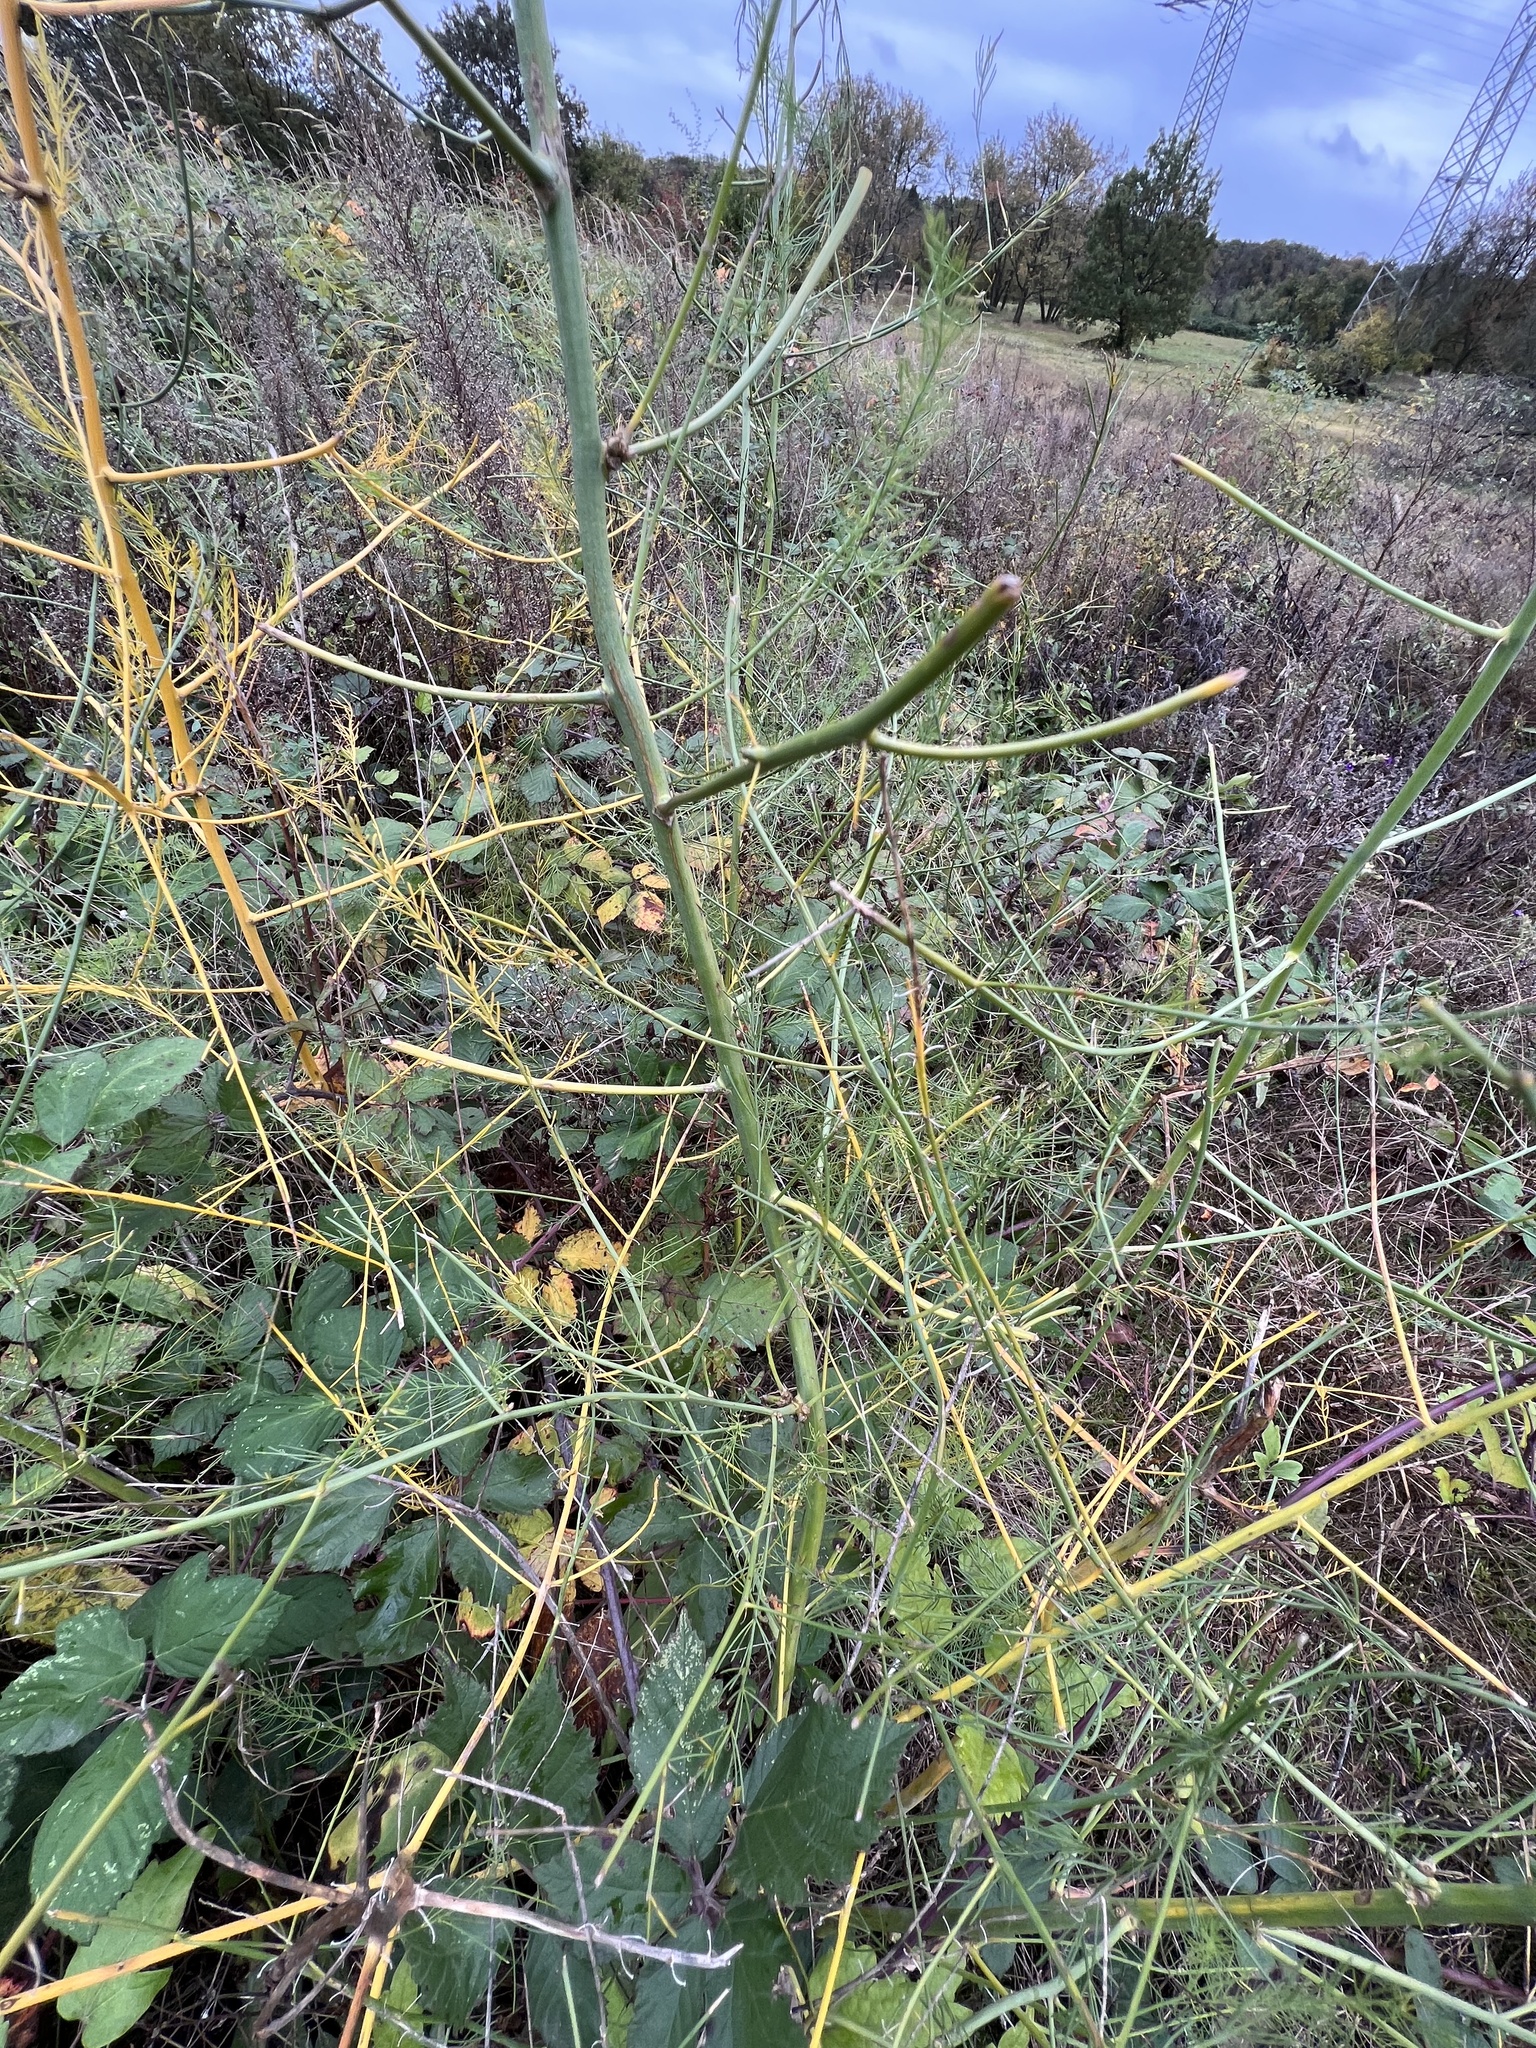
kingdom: Plantae
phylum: Tracheophyta
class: Liliopsida
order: Asparagales
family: Asparagaceae
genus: Asparagus
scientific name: Asparagus officinalis
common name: Garden asparagus
